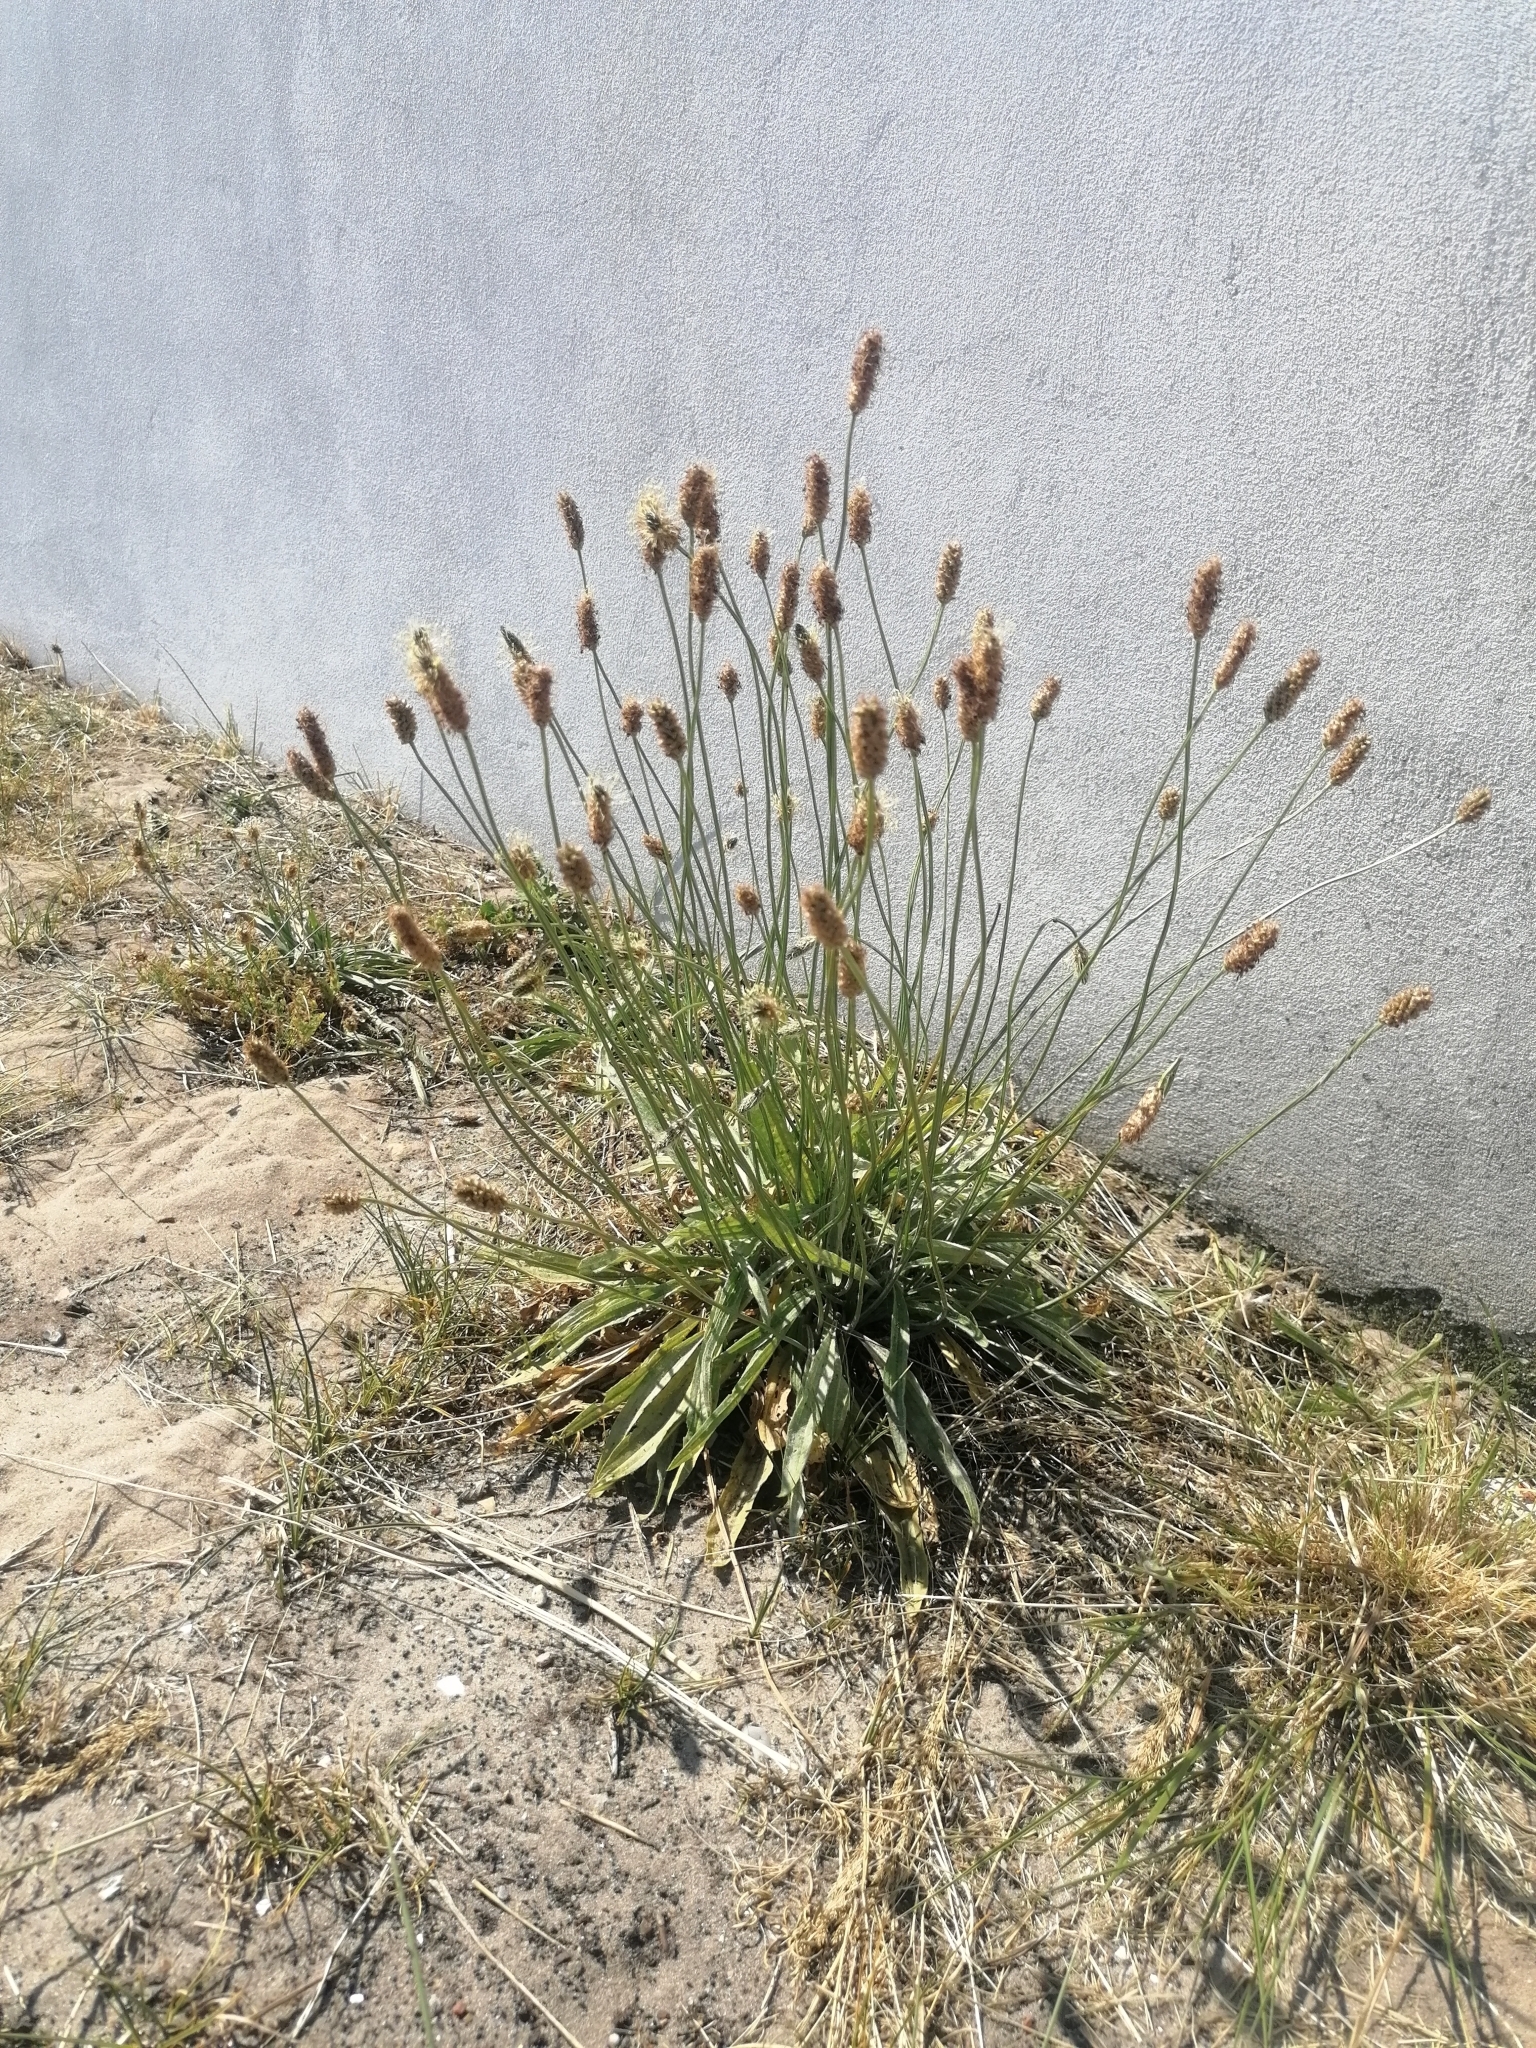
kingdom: Plantae
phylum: Tracheophyta
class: Magnoliopsida
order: Lamiales
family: Plantaginaceae
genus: Plantago
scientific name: Plantago lanceolata
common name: Ribwort plantain
